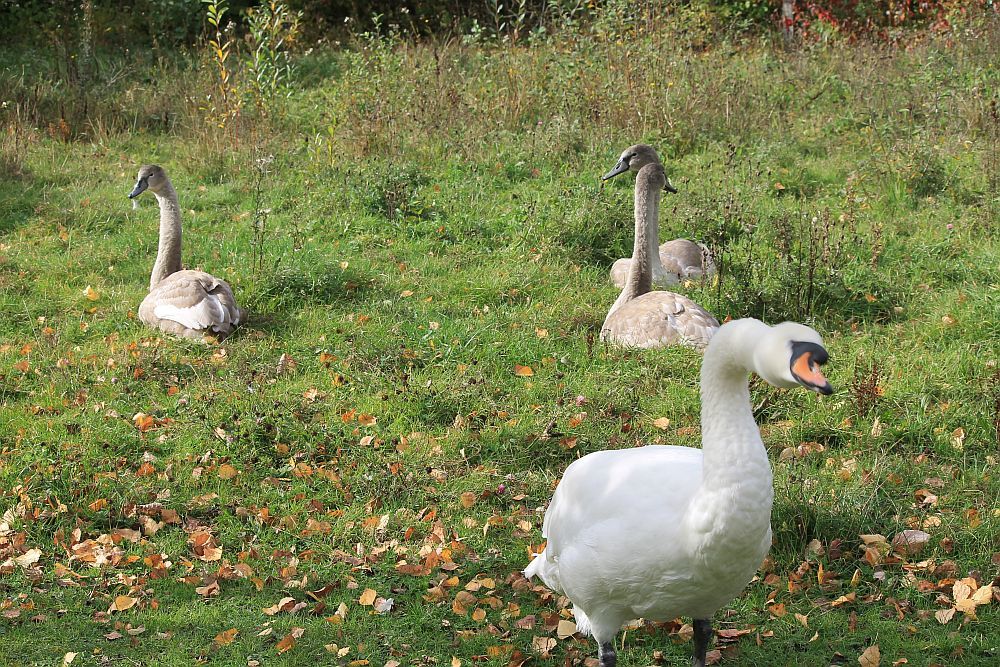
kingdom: Animalia
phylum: Chordata
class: Aves
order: Anseriformes
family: Anatidae
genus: Cygnus
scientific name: Cygnus olor
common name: Mute swan
